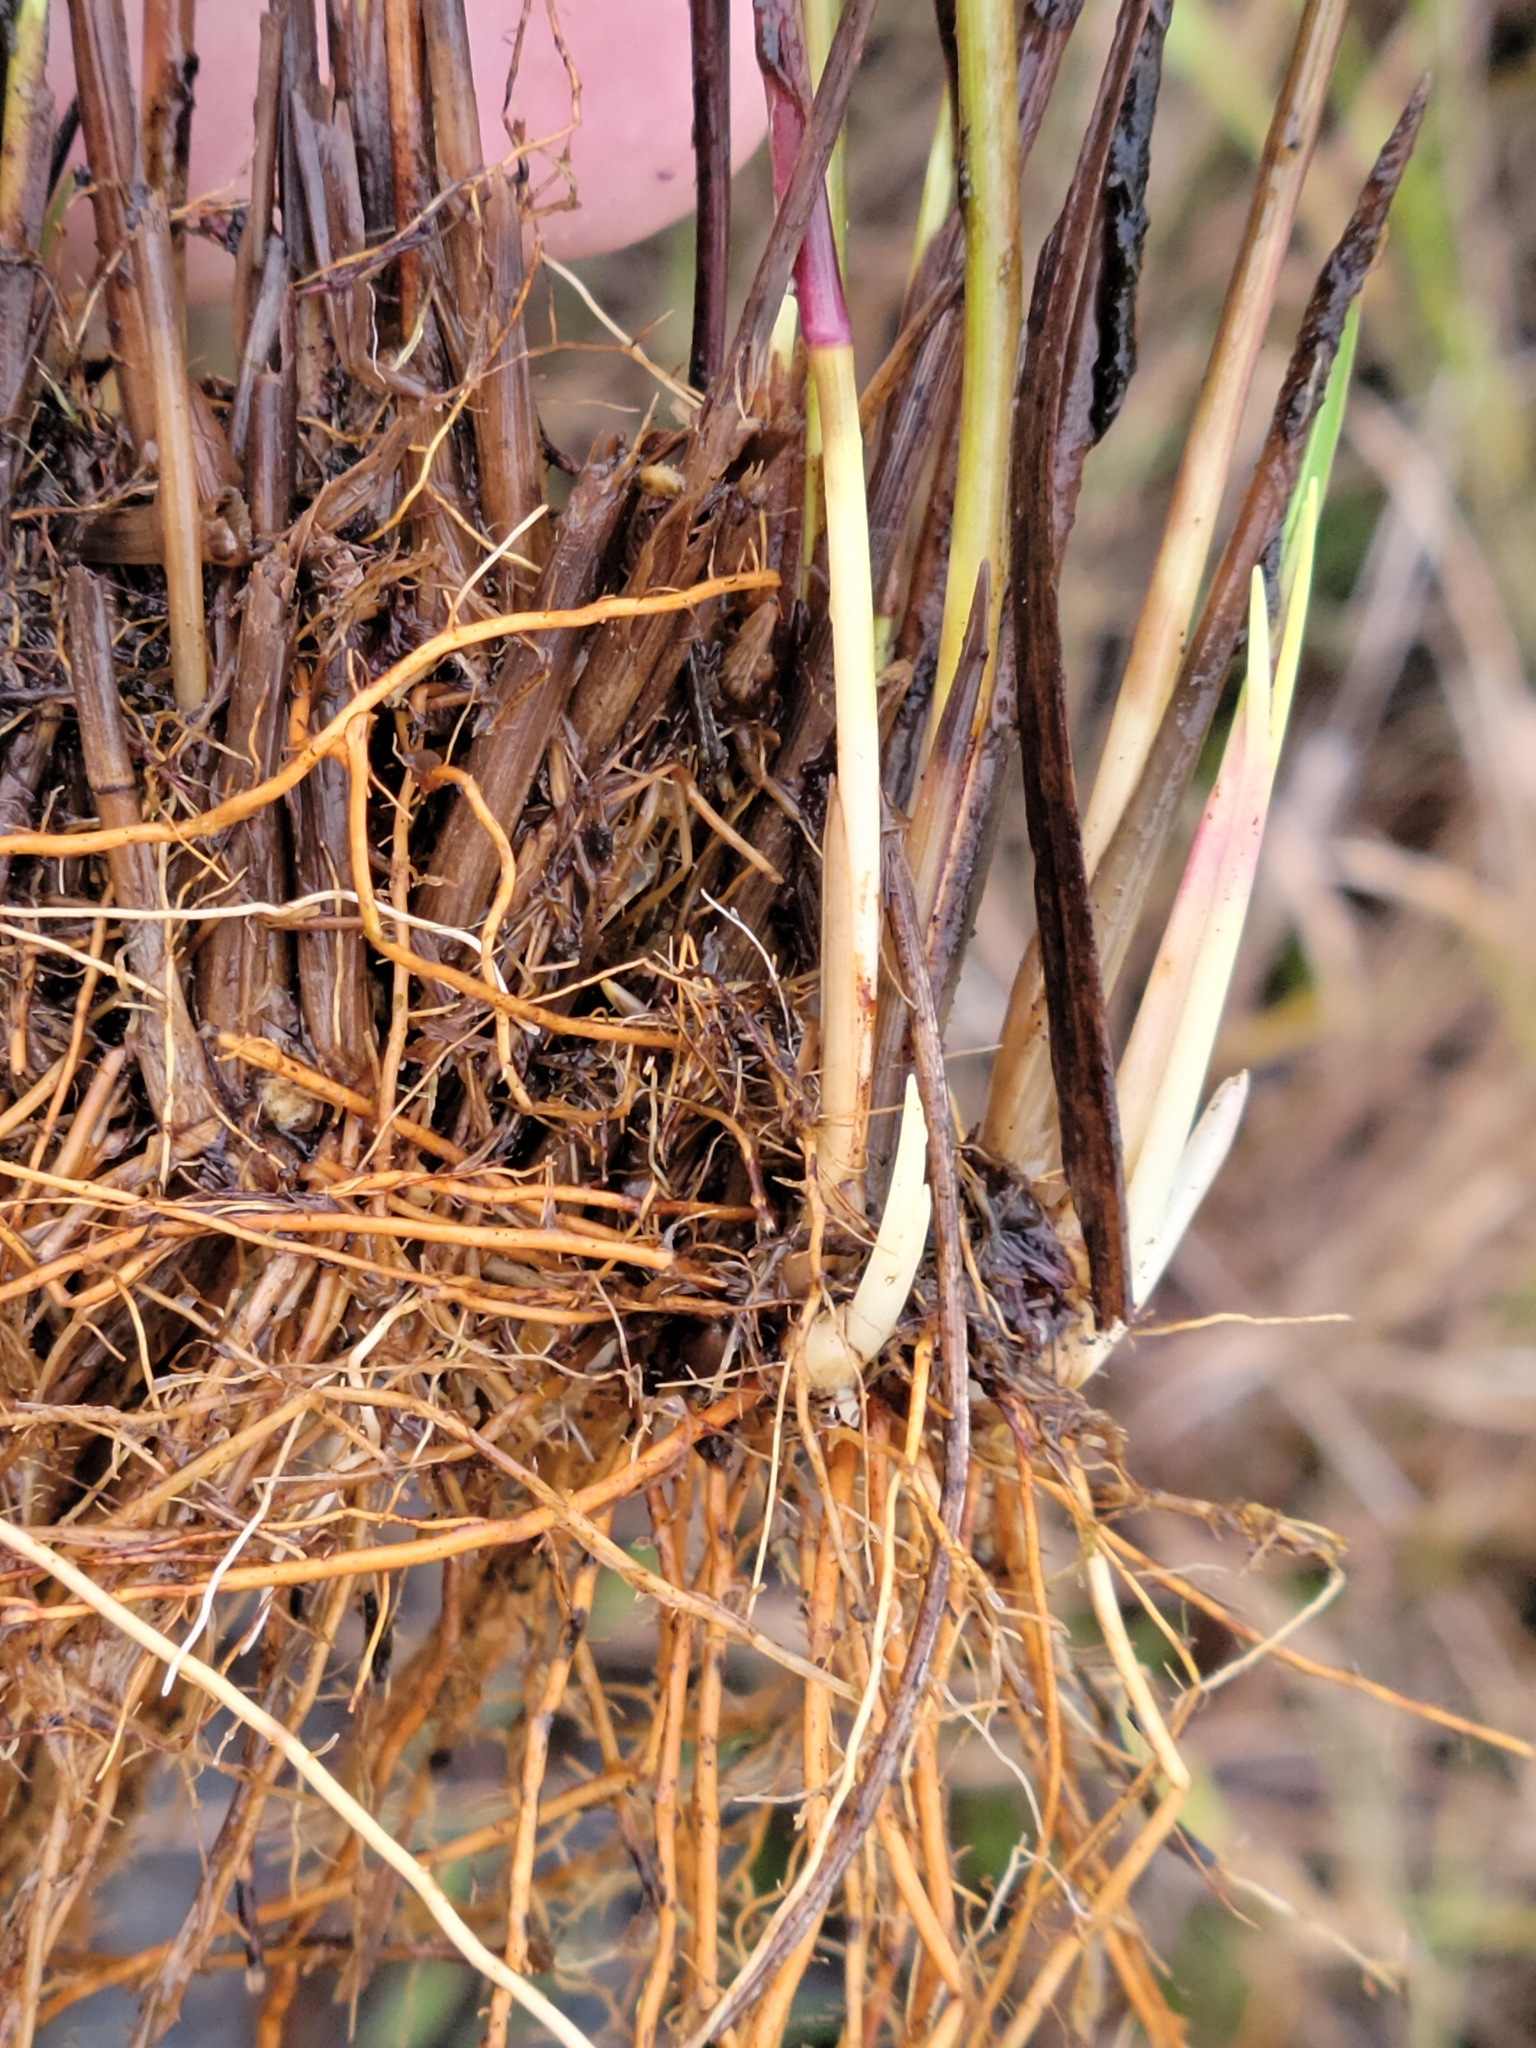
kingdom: Plantae
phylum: Tracheophyta
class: Liliopsida
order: Poales
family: Poaceae
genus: Coleataenia
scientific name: Coleataenia tenera
